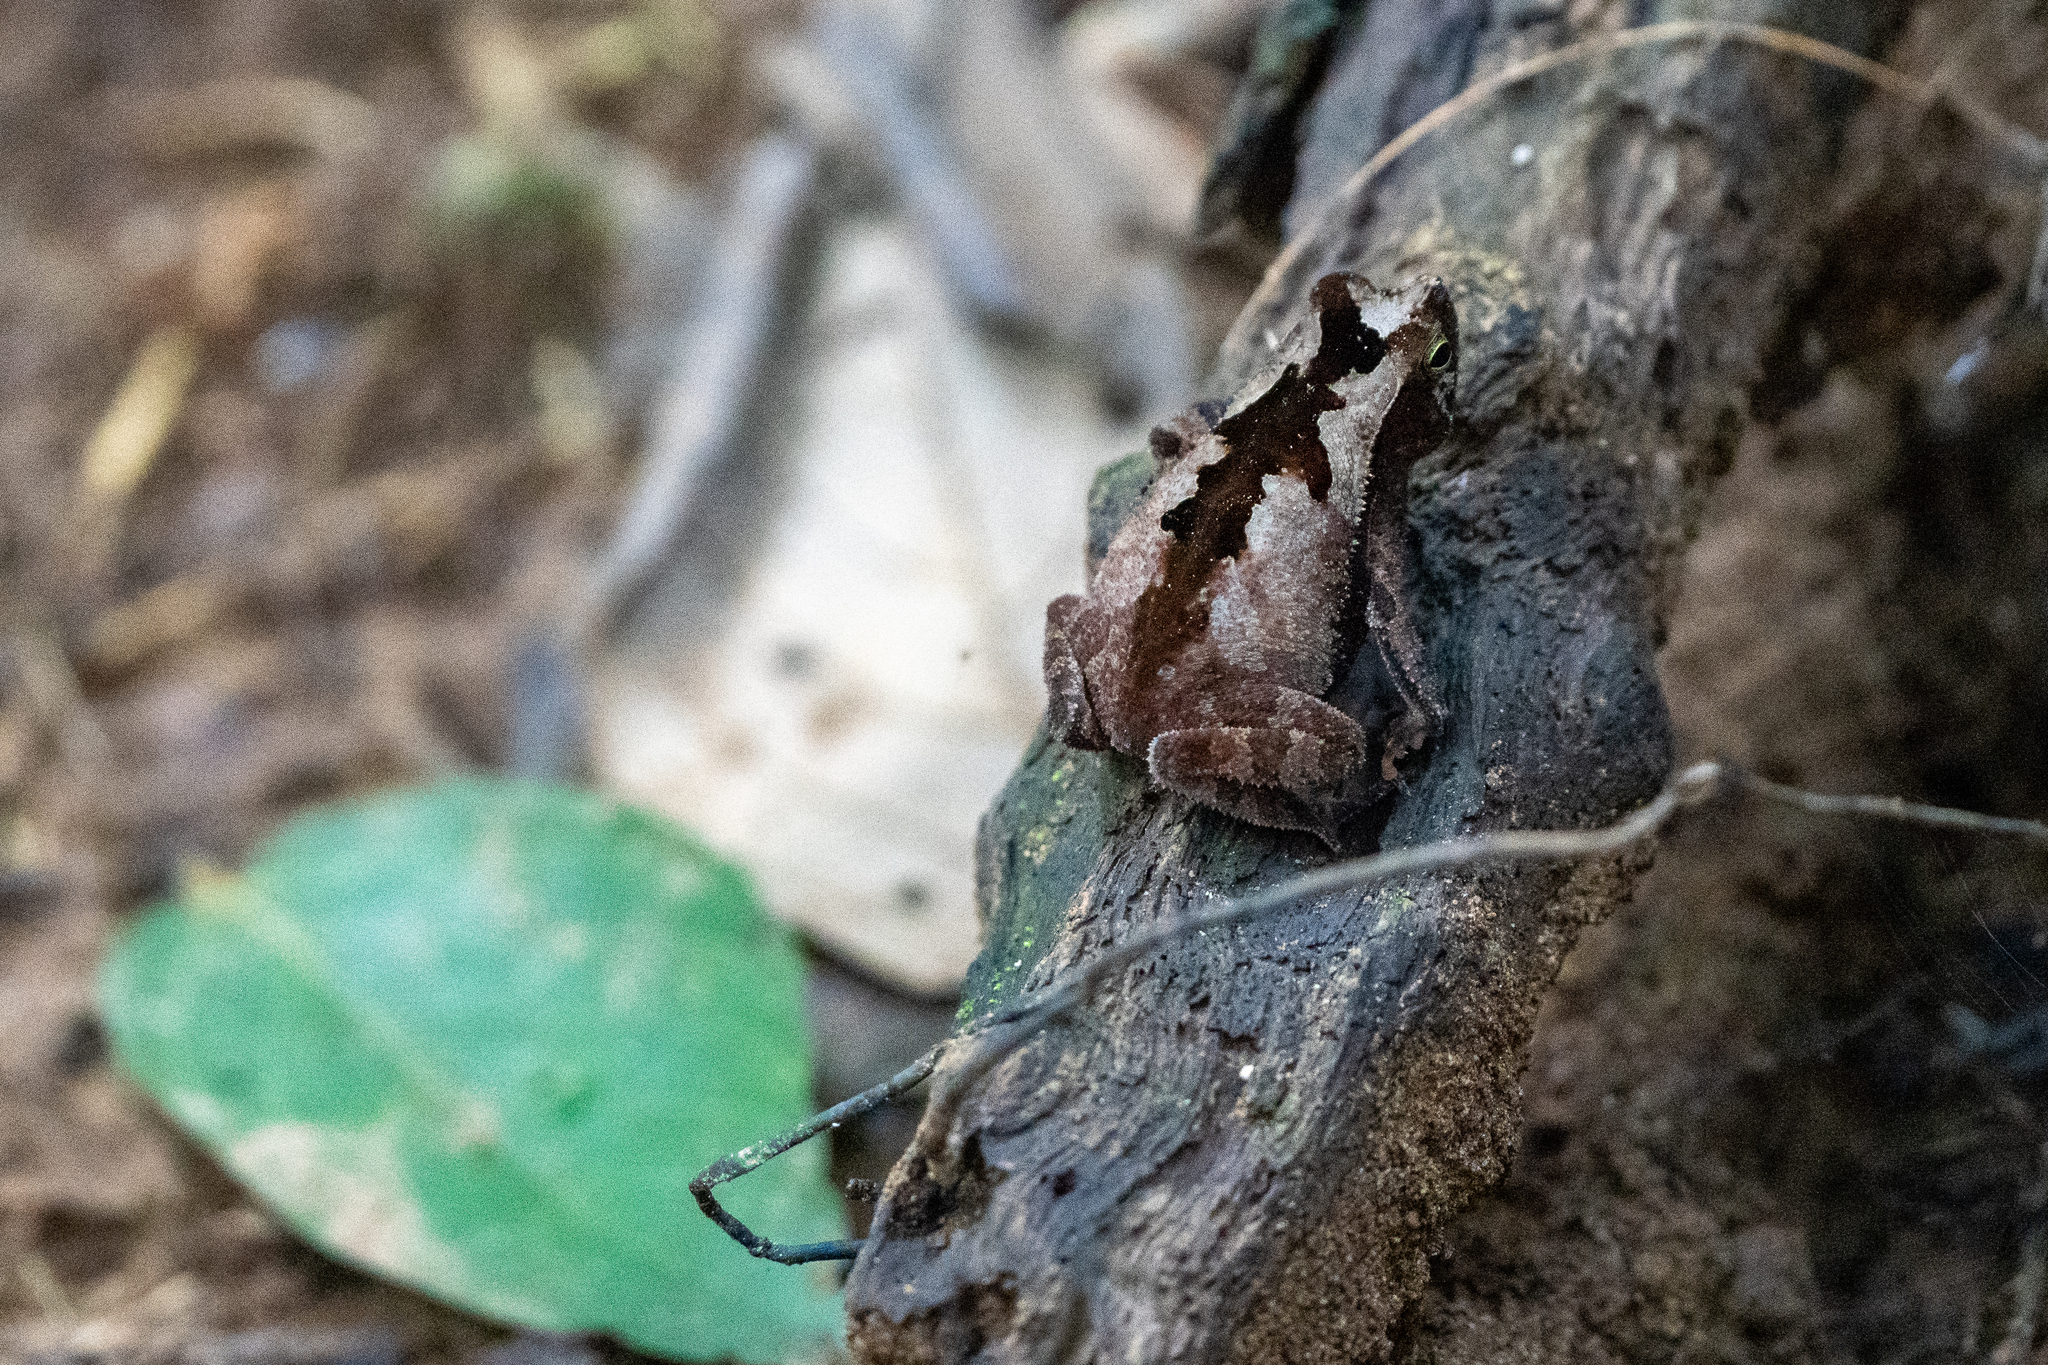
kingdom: Animalia
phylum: Chordata
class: Amphibia
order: Anura
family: Bufonidae
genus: Rhinella
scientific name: Rhinella alata
